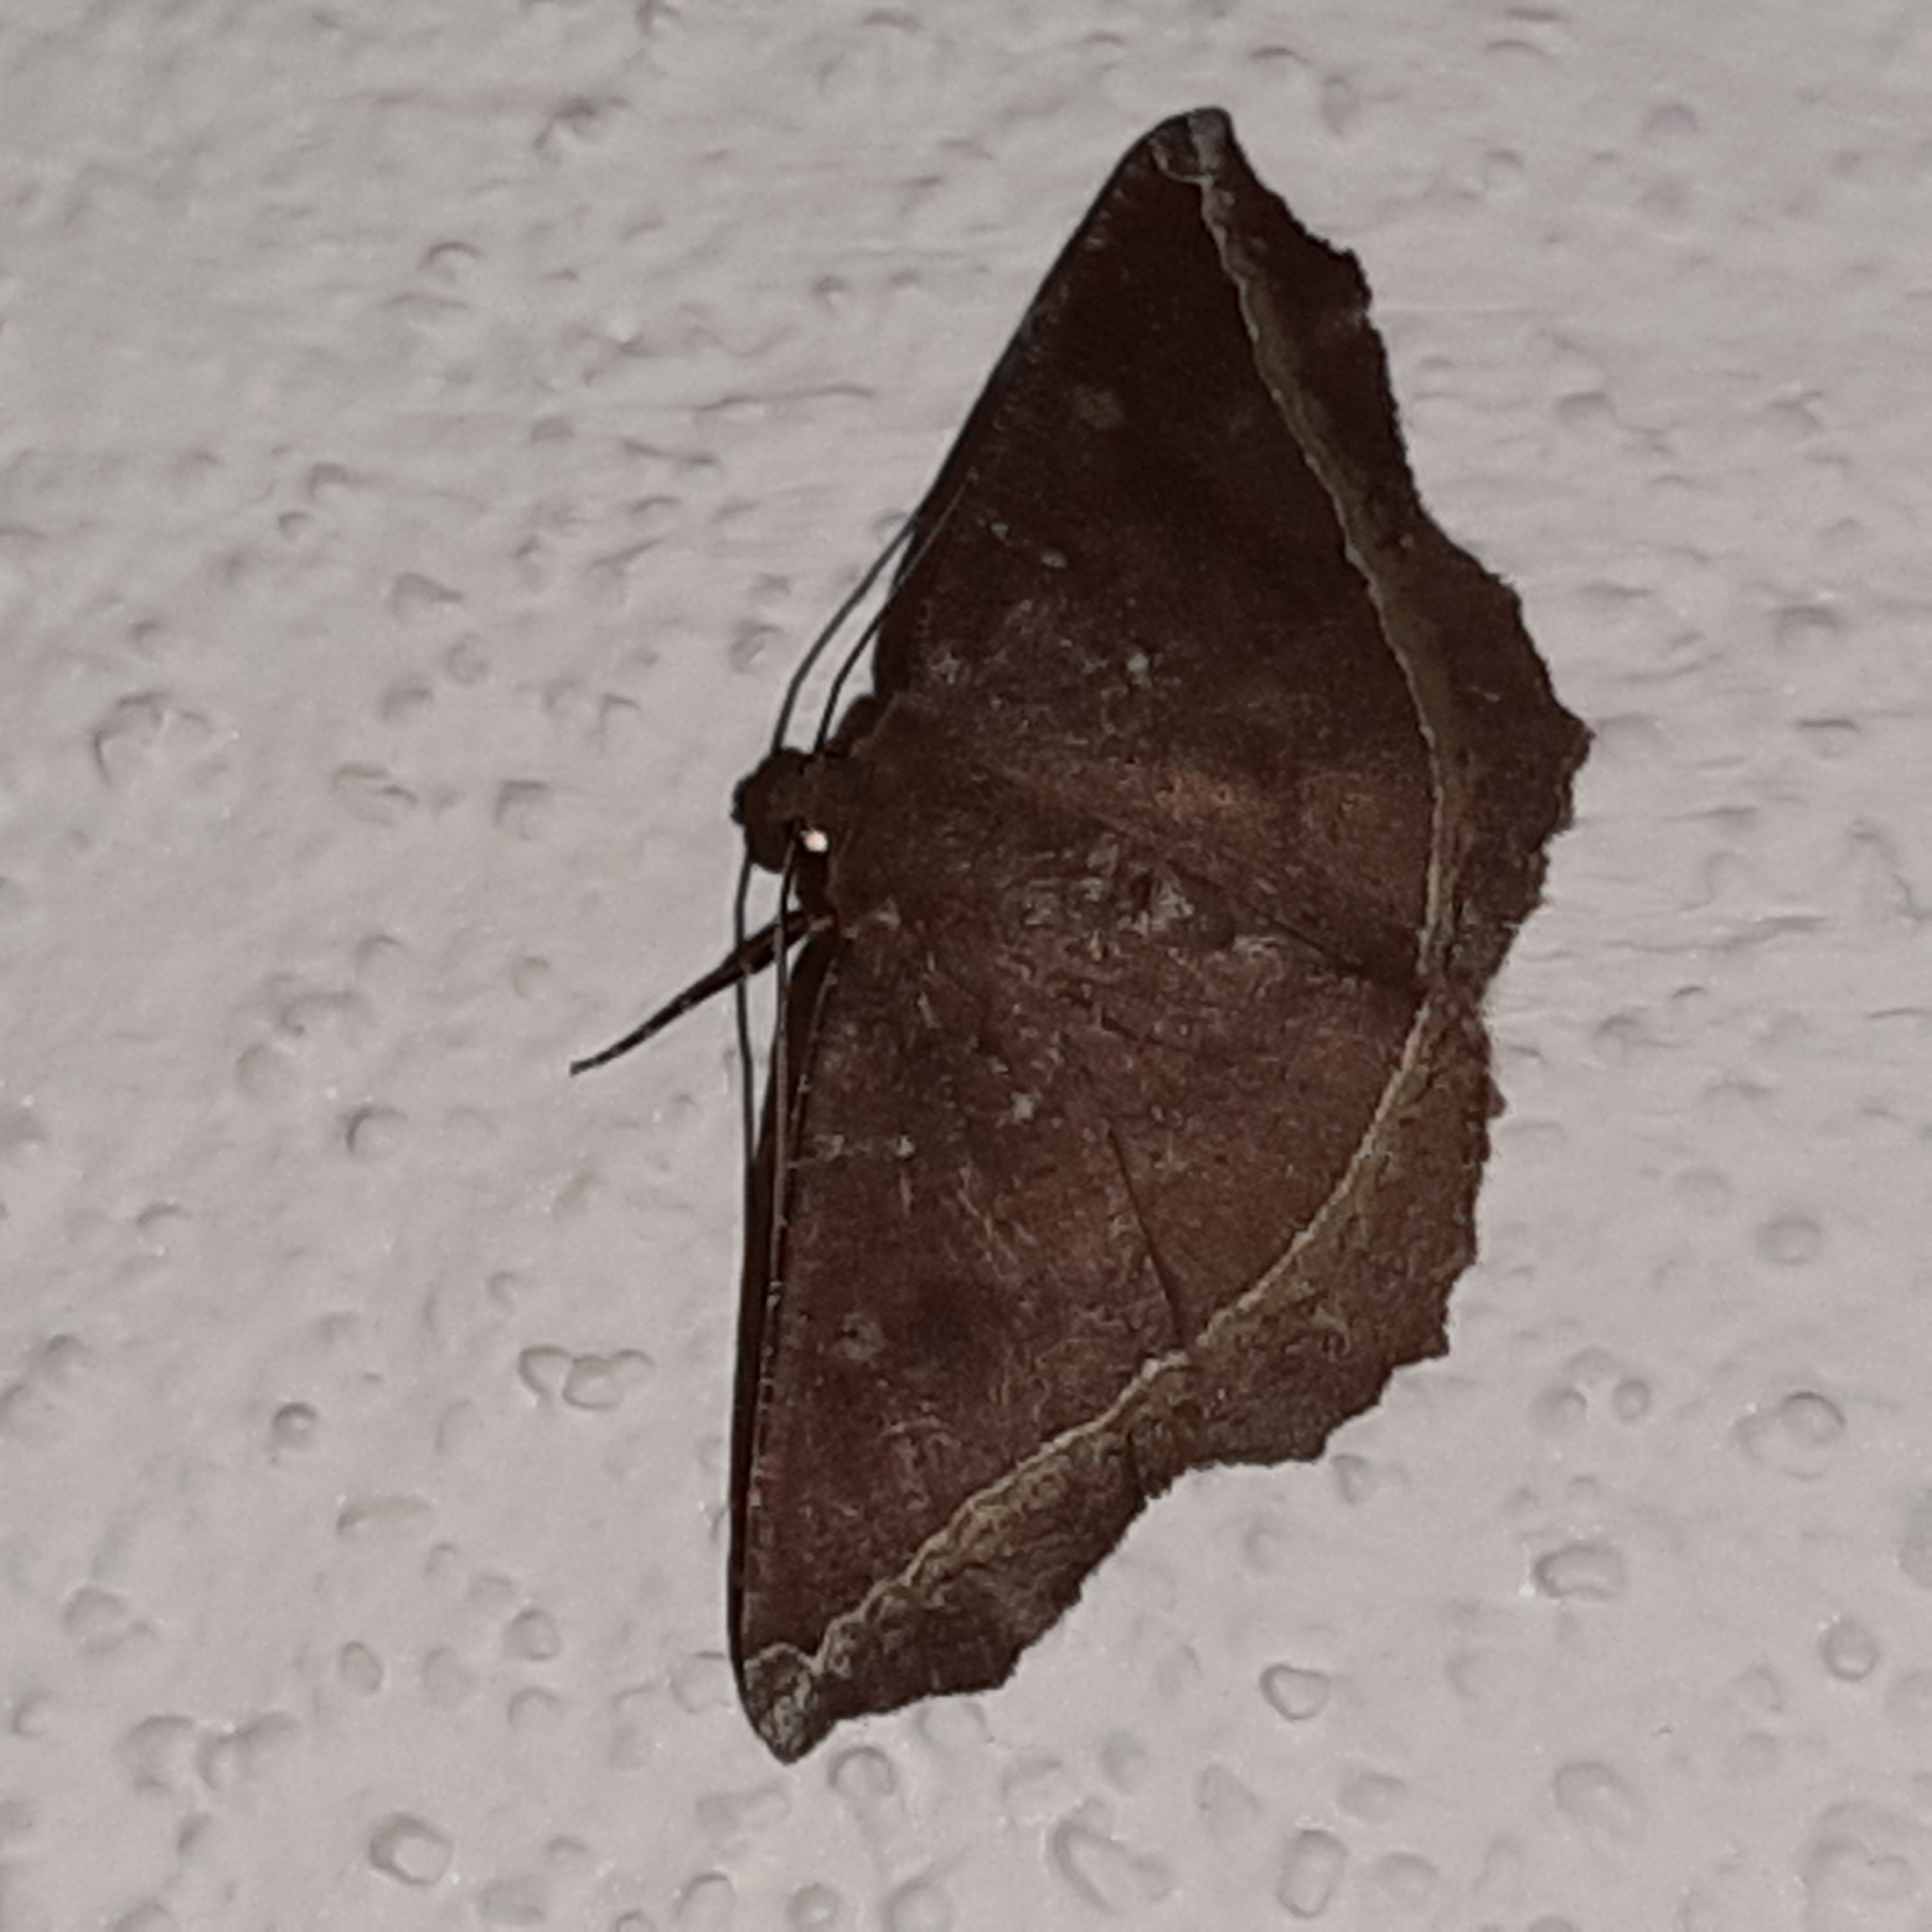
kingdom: Animalia
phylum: Arthropoda
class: Insecta
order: Lepidoptera
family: Geometridae
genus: Synnomos
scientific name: Synnomos firmamentaria
